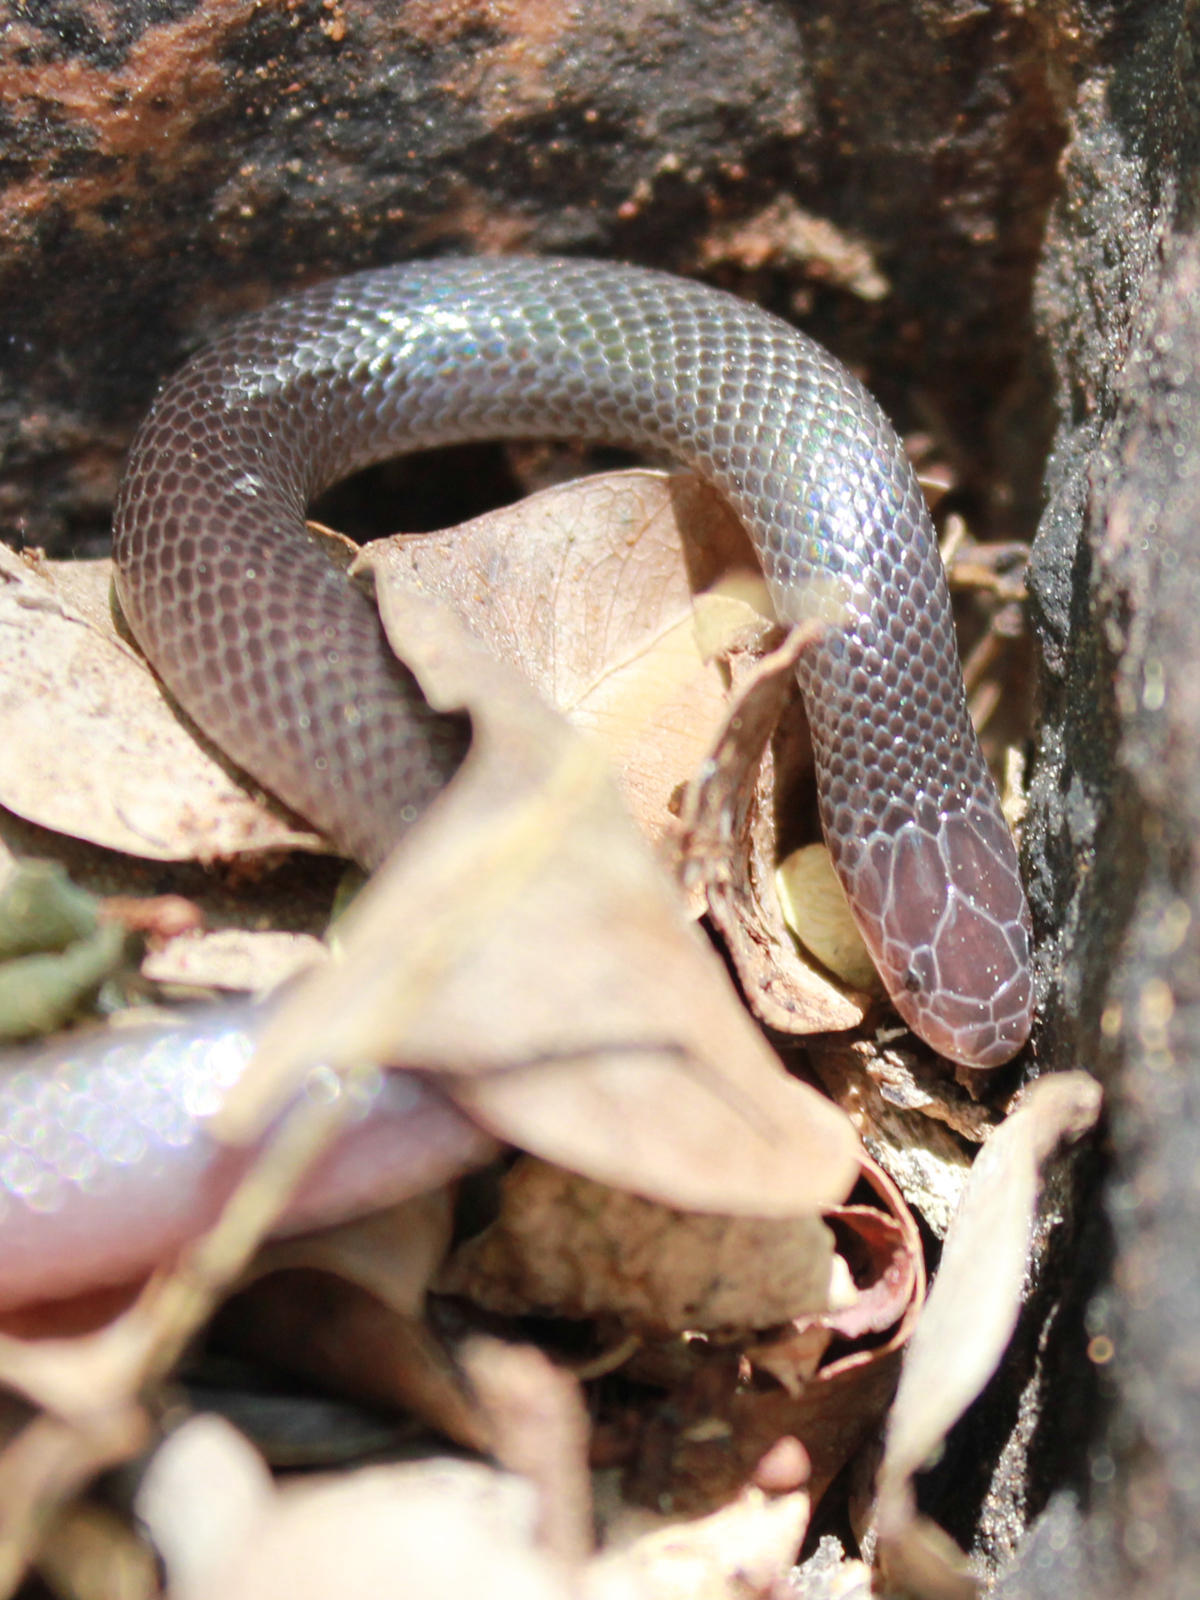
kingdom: Animalia
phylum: Chordata
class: Squamata
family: Atractaspididae
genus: Atractaspis
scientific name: Atractaspis bibronii
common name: Bibron's burrowing asp
